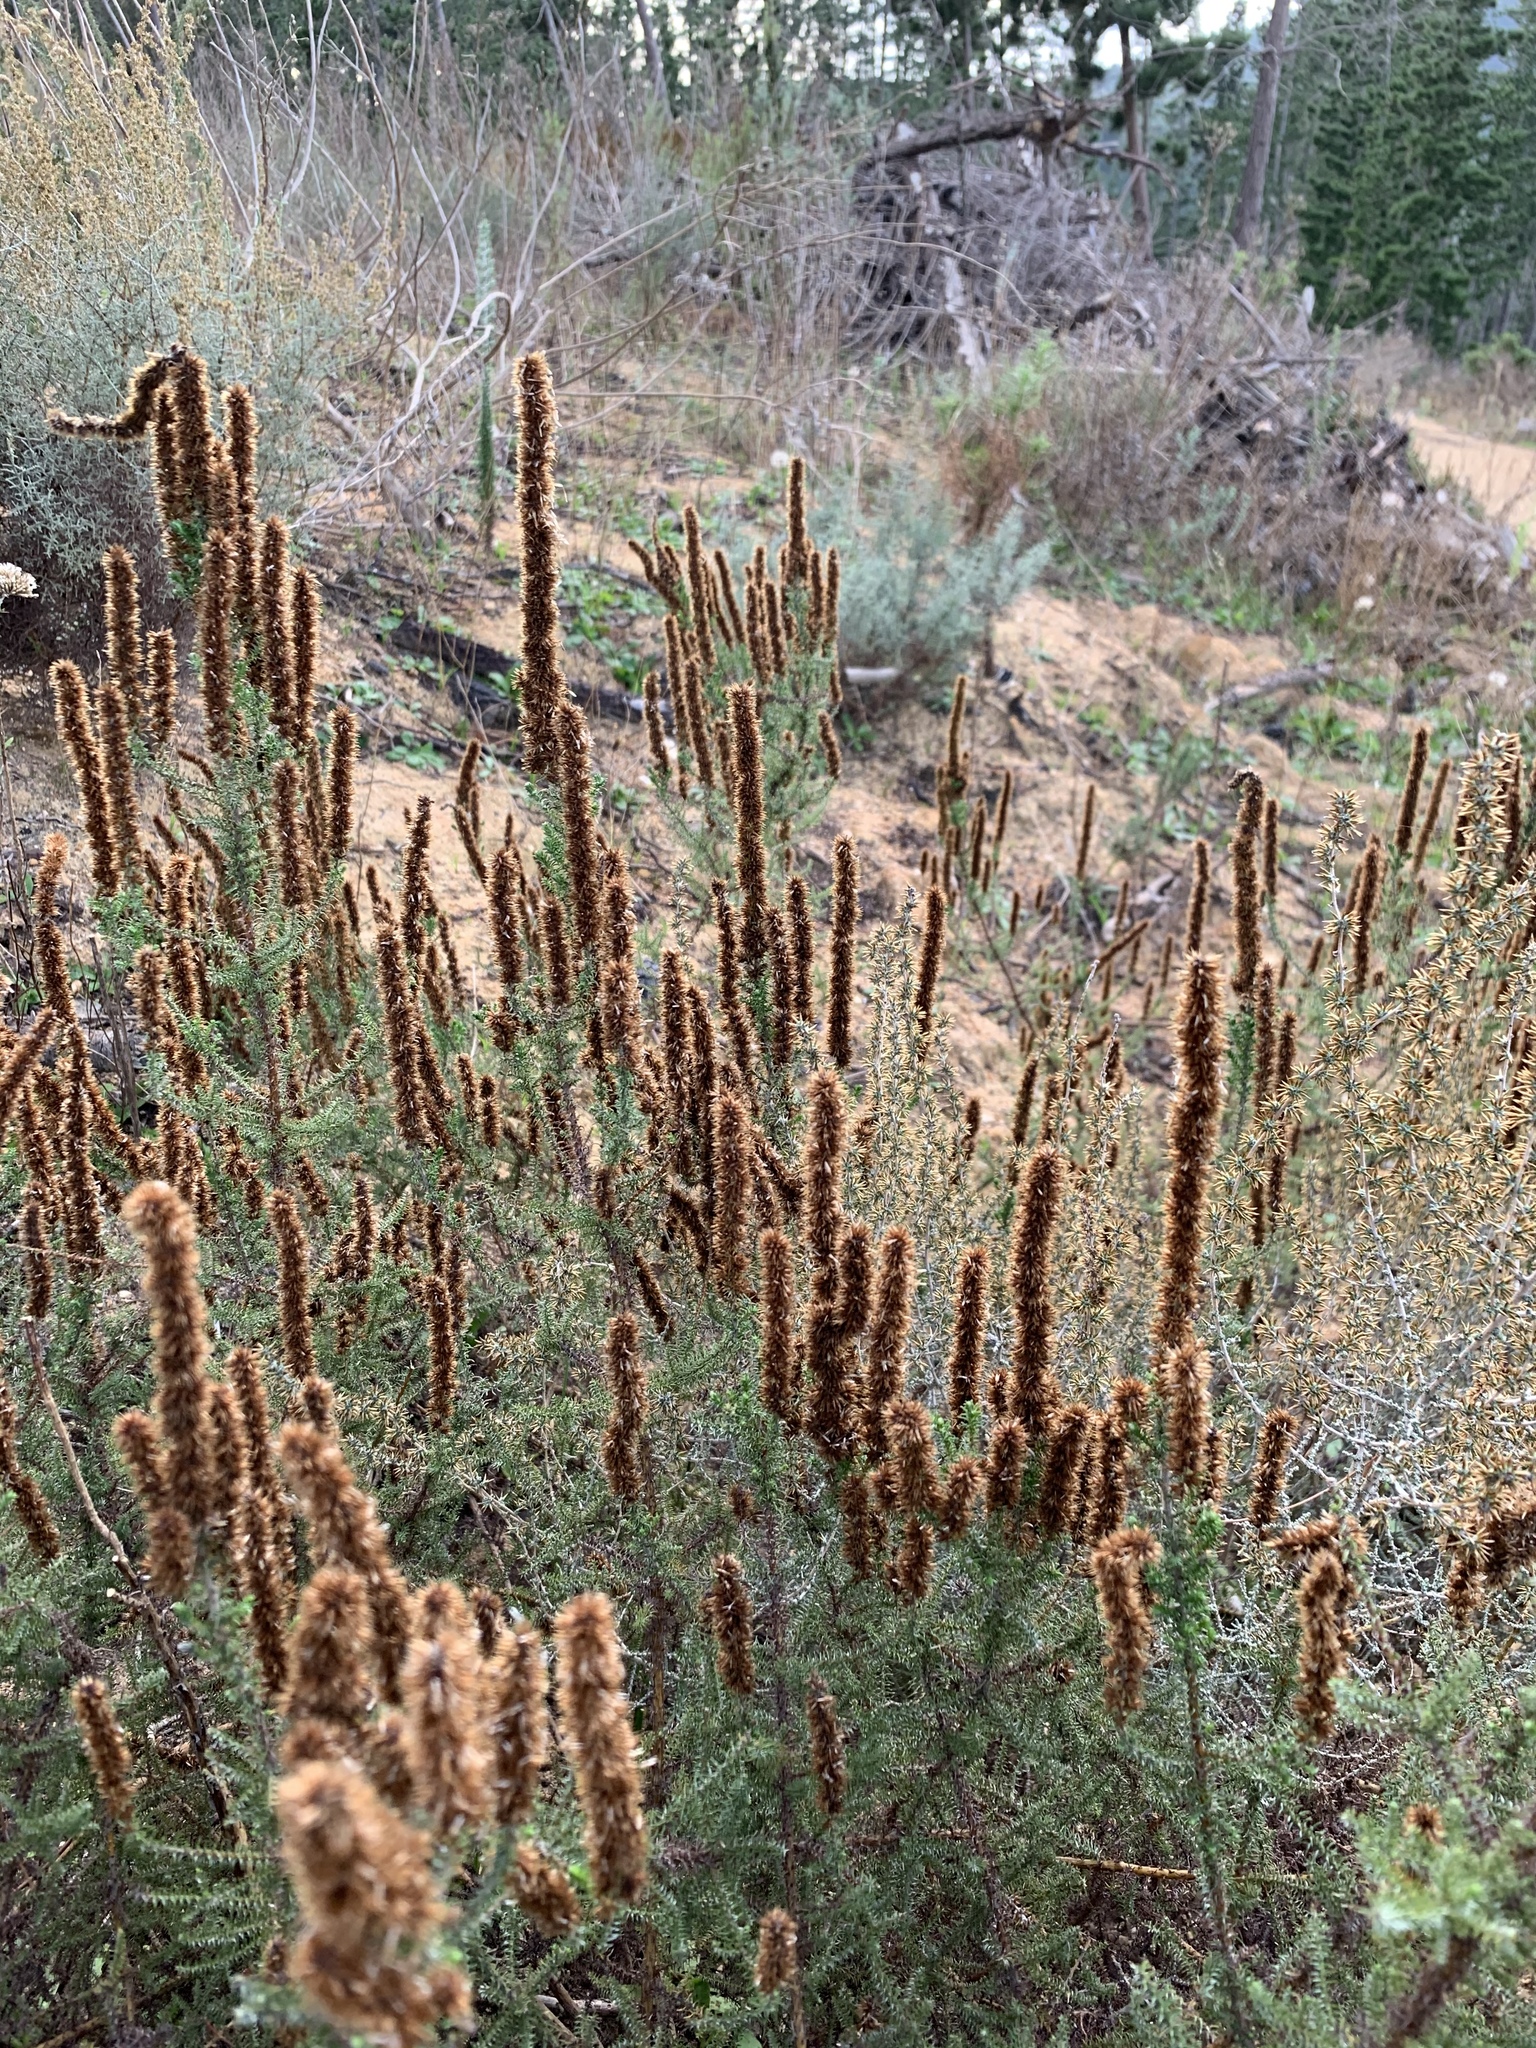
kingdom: Plantae
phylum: Tracheophyta
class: Magnoliopsida
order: Asterales
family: Asteraceae
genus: Seriphium
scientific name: Seriphium cinereum
